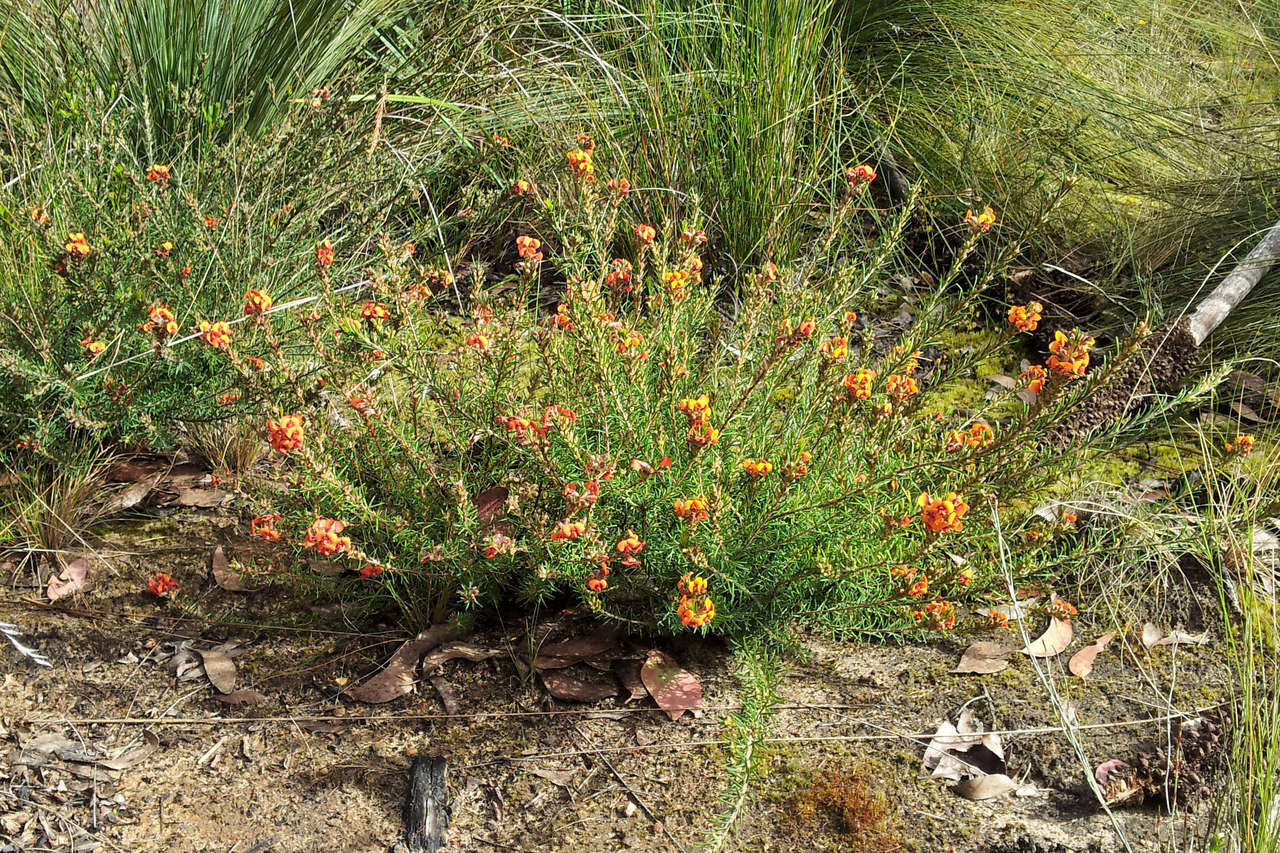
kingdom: Plantae
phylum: Tracheophyta
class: Magnoliopsida
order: Fabales
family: Fabaceae
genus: Dillwynia
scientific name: Dillwynia sericea
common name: Showy parrot-pea
